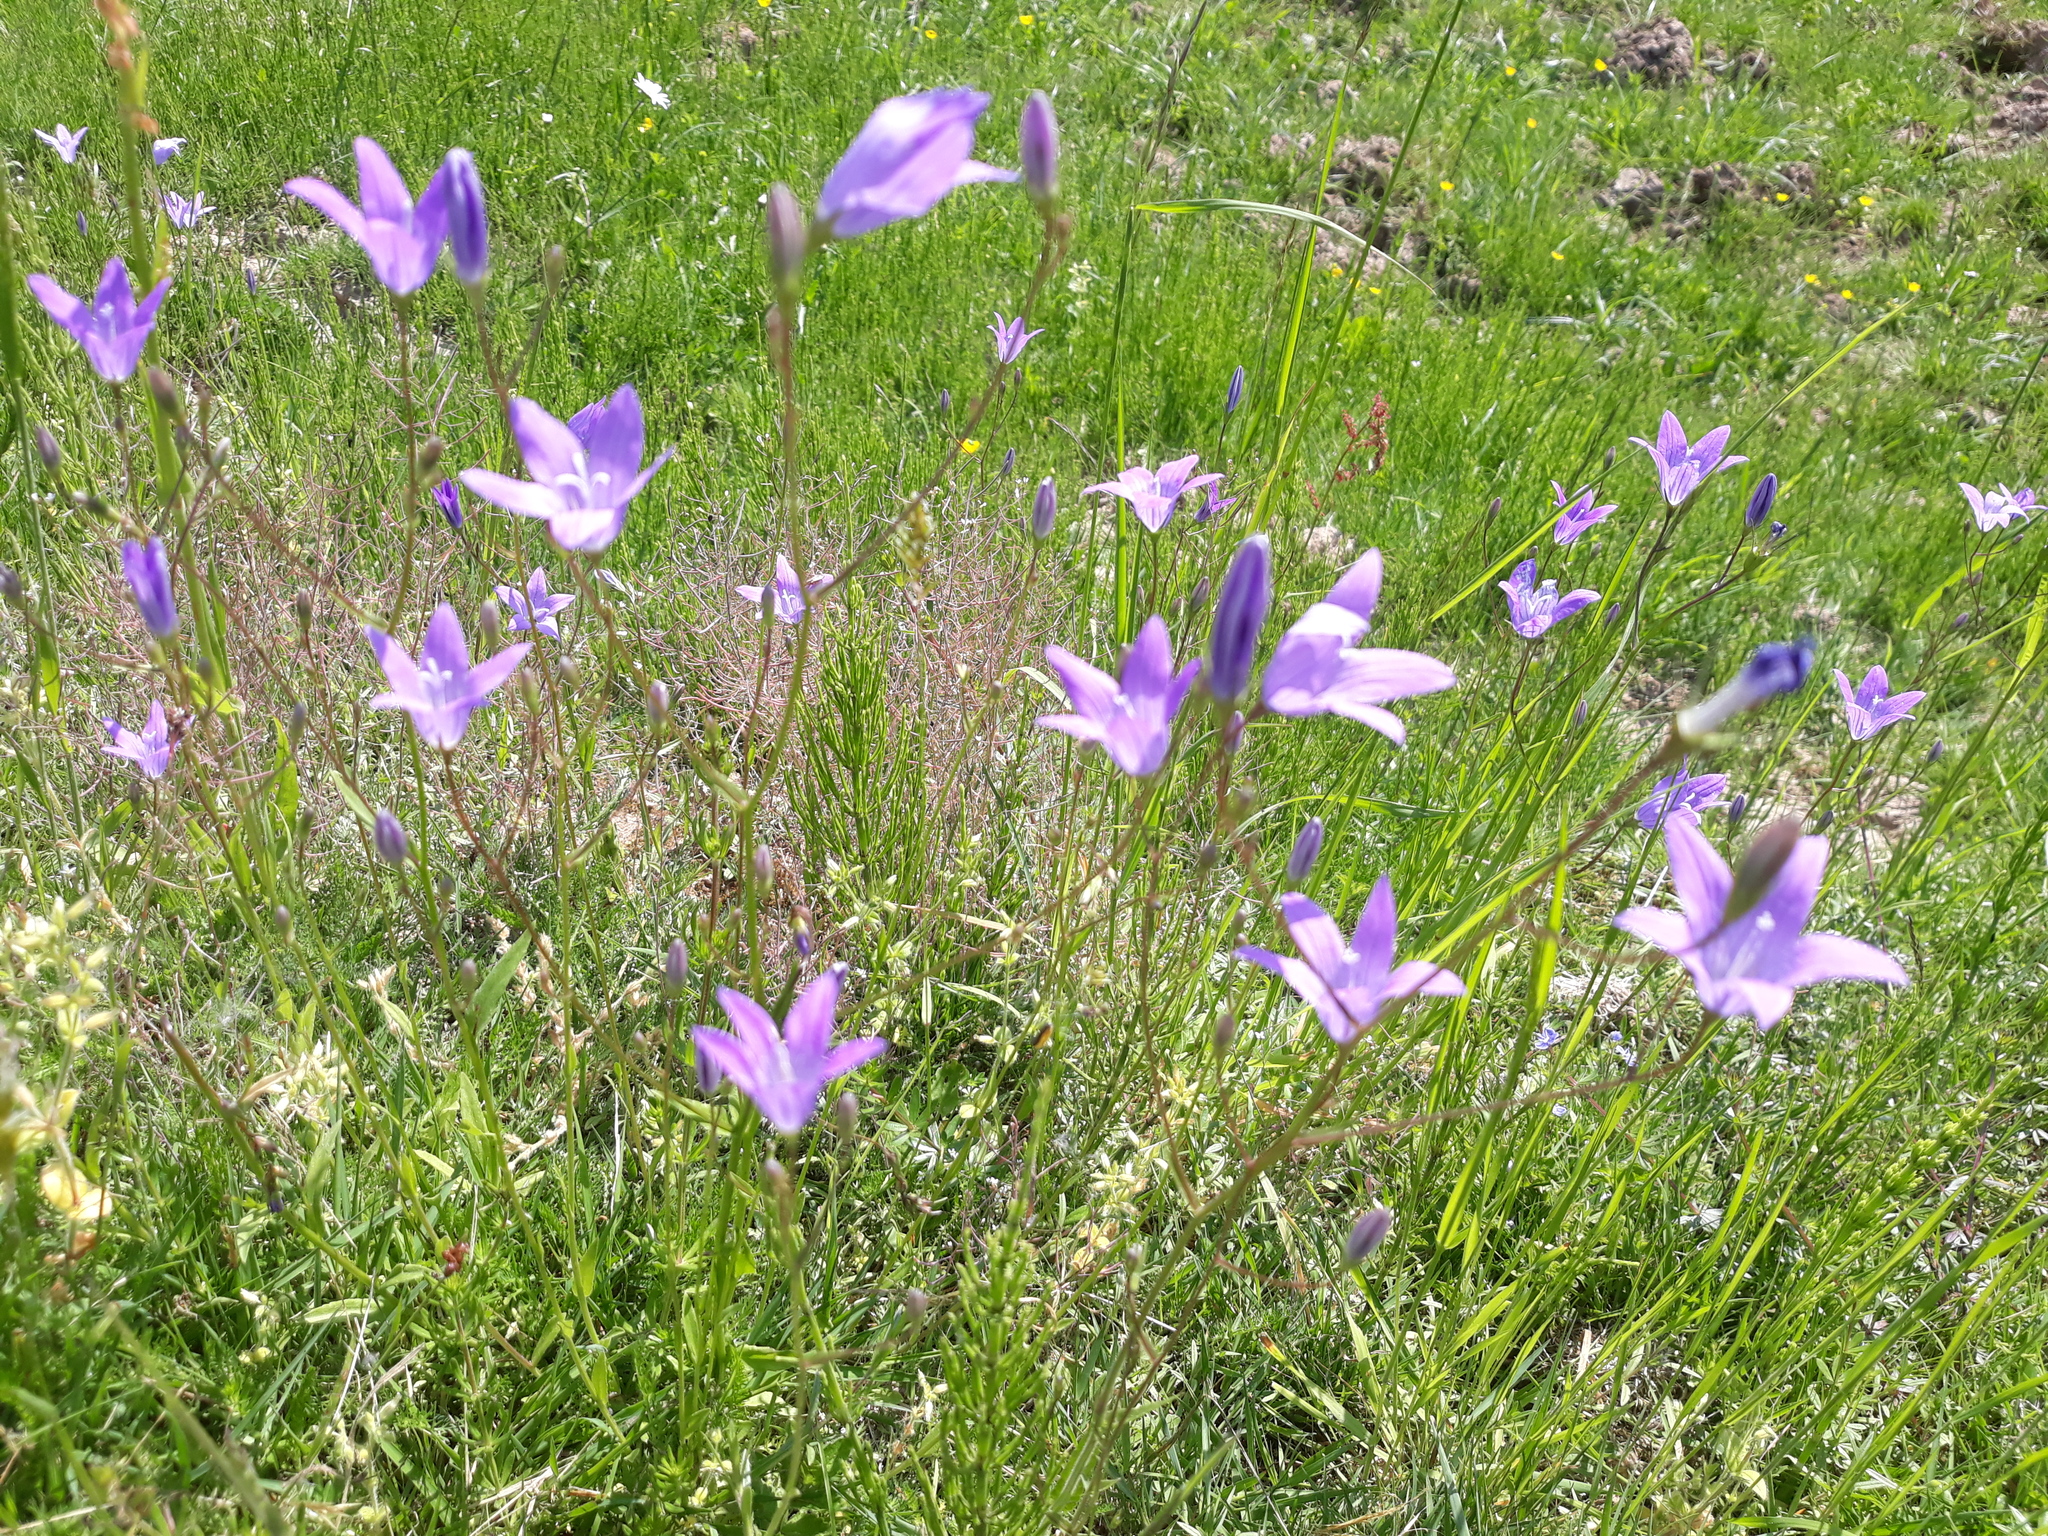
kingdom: Plantae
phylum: Tracheophyta
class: Magnoliopsida
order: Asterales
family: Campanulaceae
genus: Campanula
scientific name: Campanula patula
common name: Spreading bellflower
